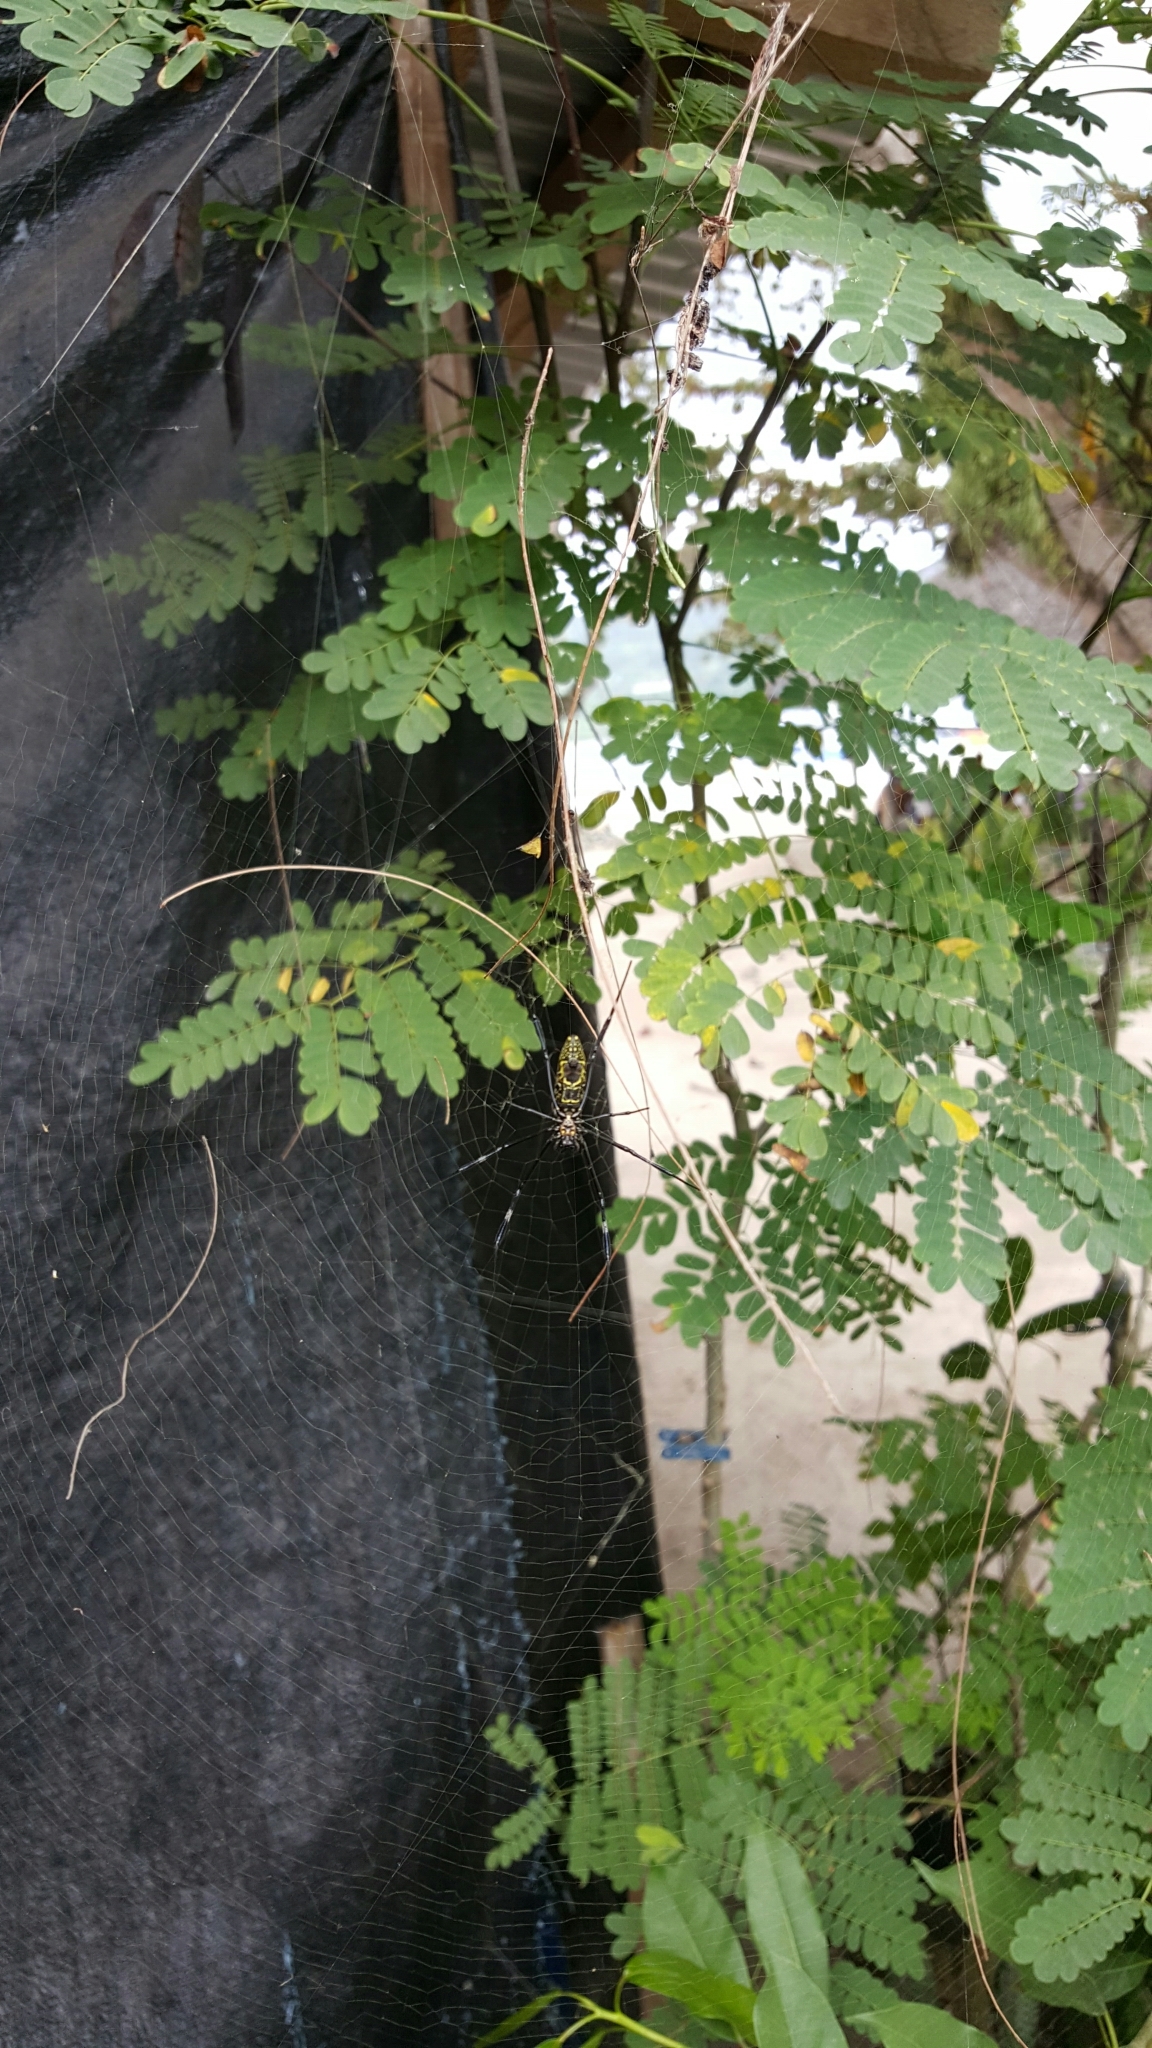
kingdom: Animalia
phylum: Arthropoda
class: Arachnida
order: Araneae
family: Araneidae
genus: Nephila
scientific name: Nephila pilipes
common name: Giant golden orb weaver
